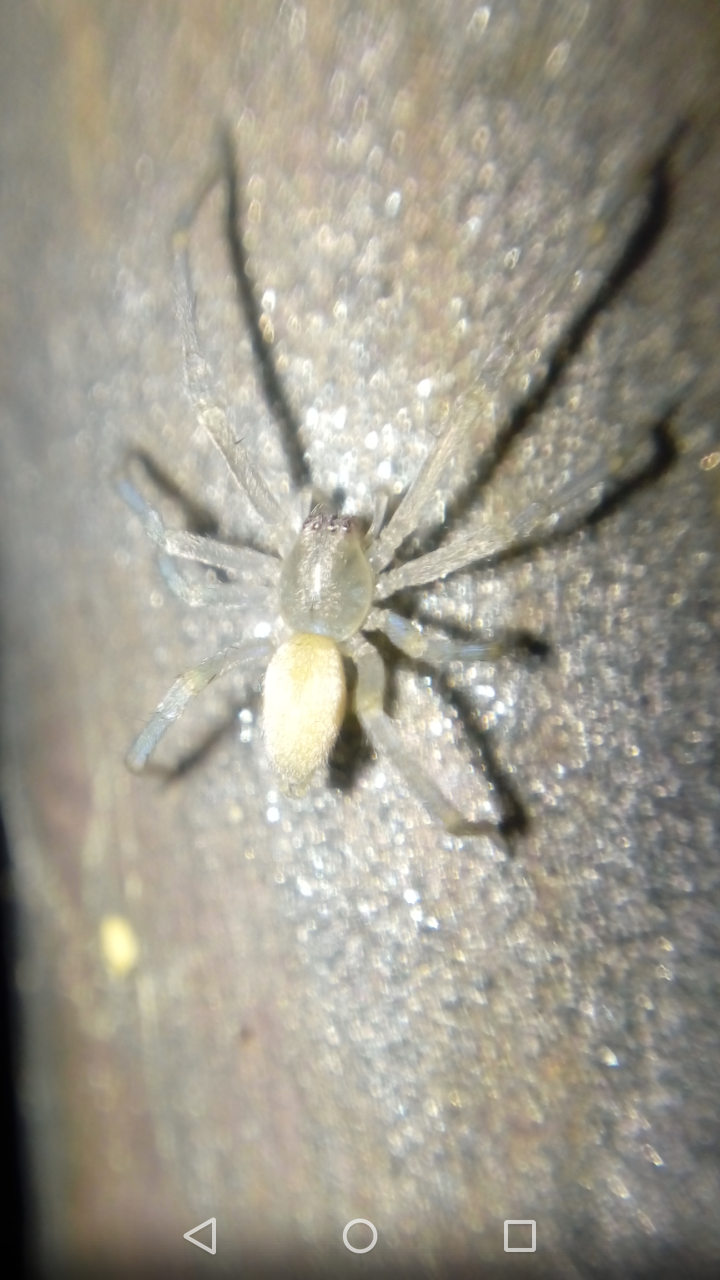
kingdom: Animalia
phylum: Arthropoda
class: Arachnida
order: Araneae
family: Cheiracanthiidae
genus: Cheiracanthium
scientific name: Cheiracanthium mildei
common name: Northern yellow sac spider
